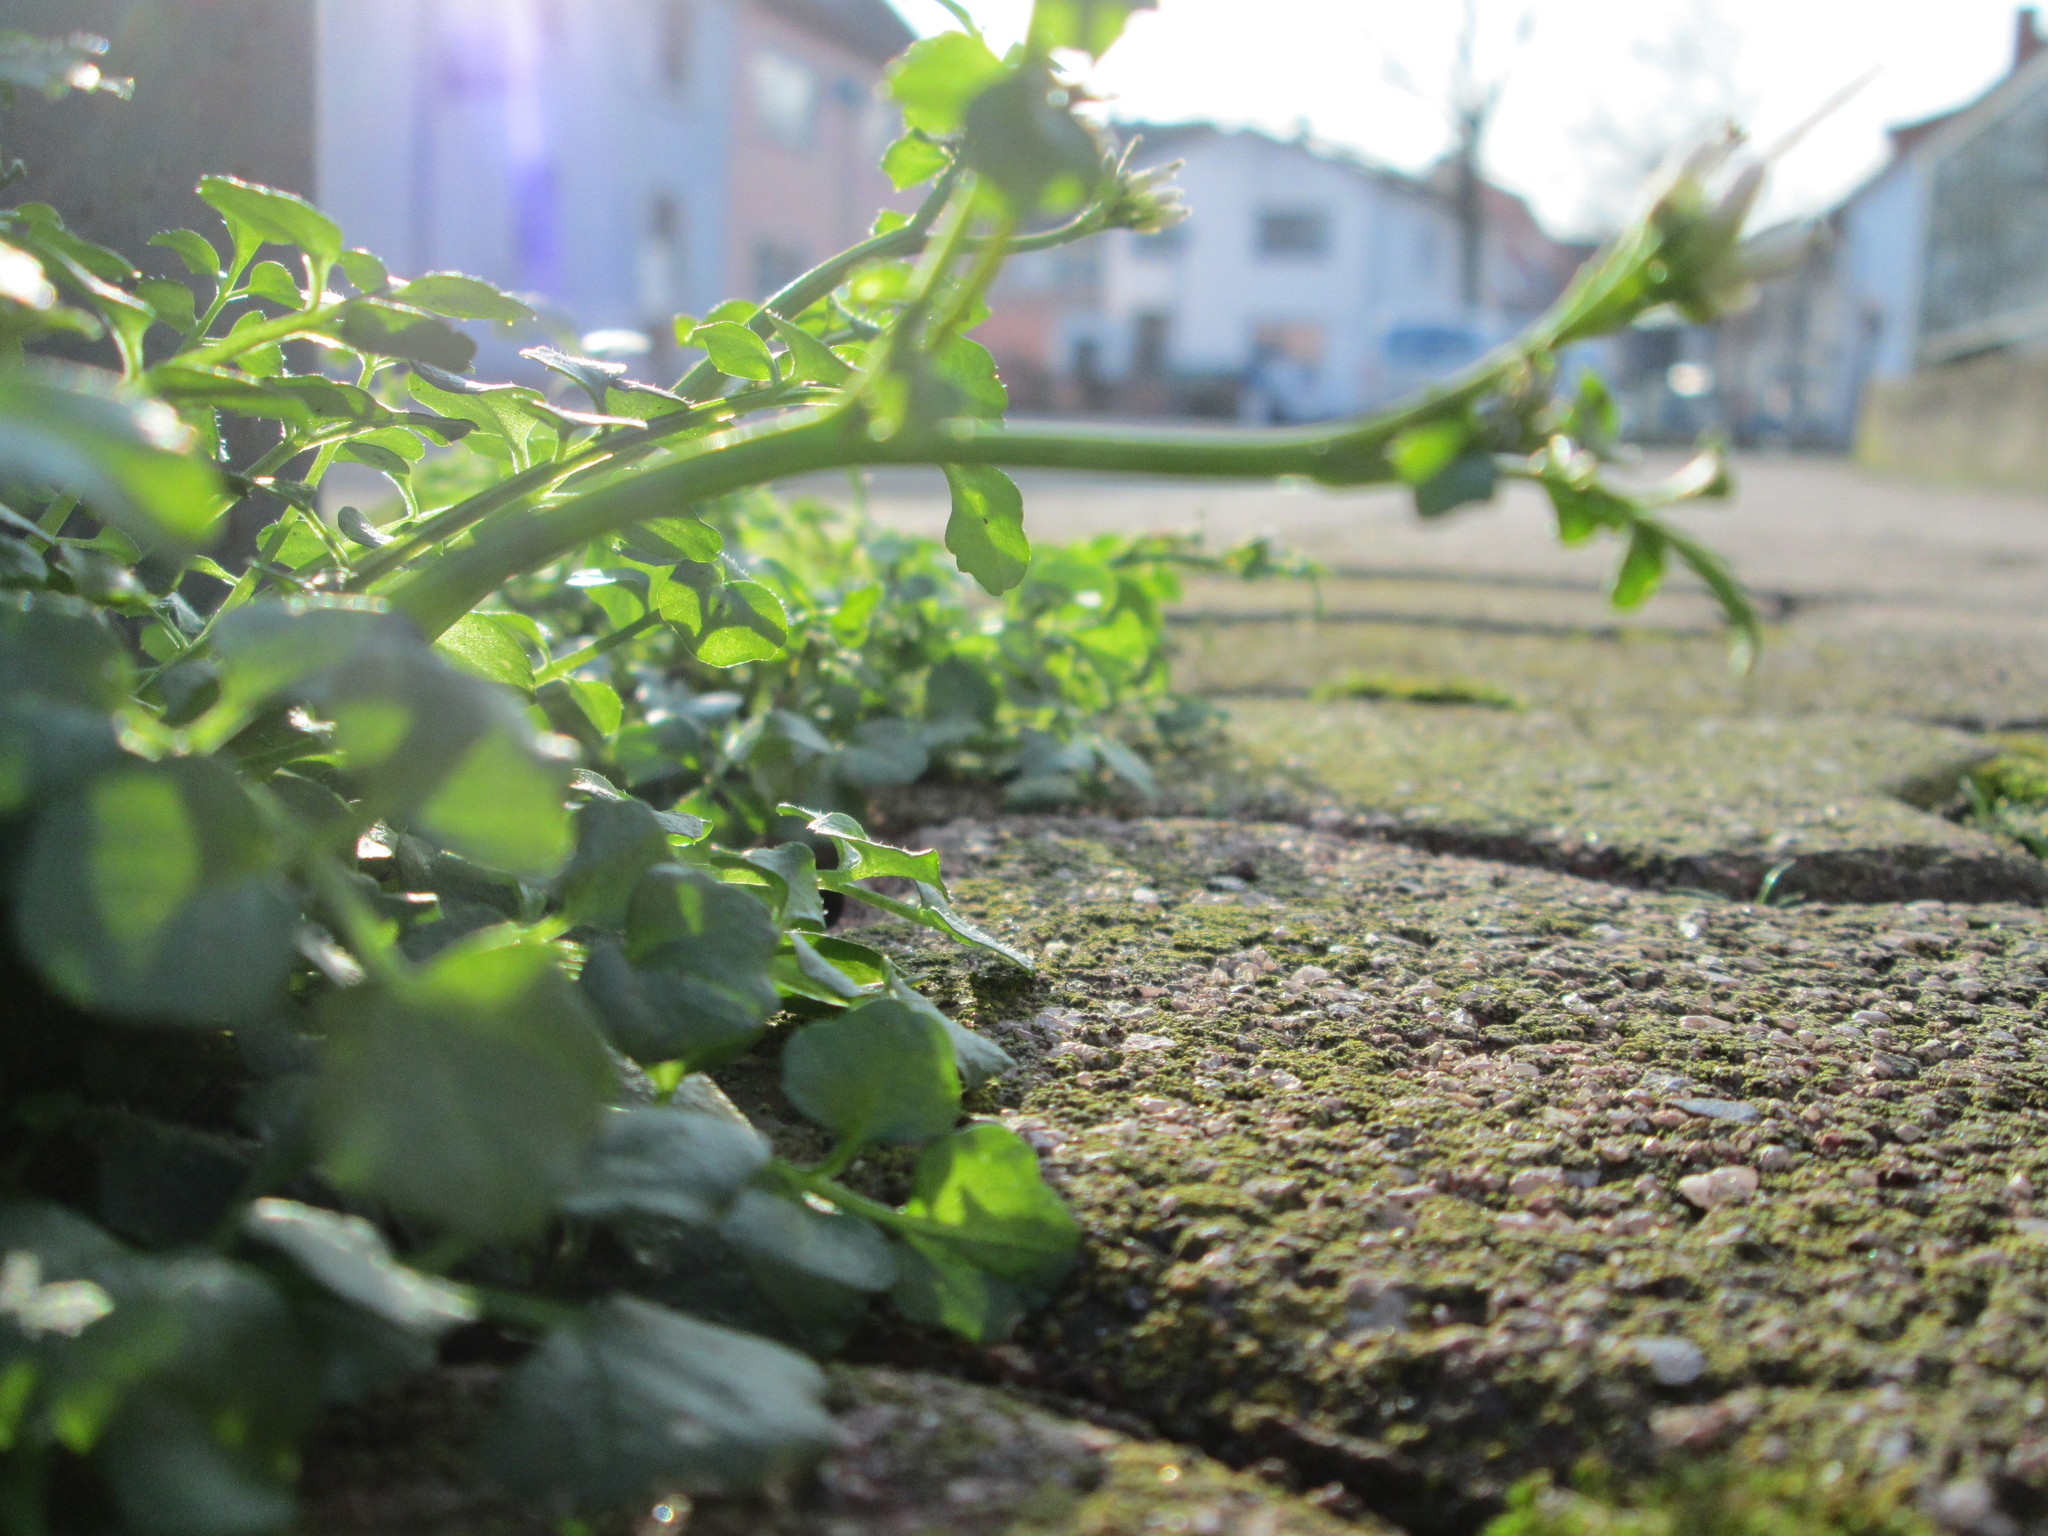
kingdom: Plantae
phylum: Tracheophyta
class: Magnoliopsida
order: Brassicales
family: Brassicaceae
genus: Cardamine
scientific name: Cardamine hirsuta
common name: Hairy bittercress
